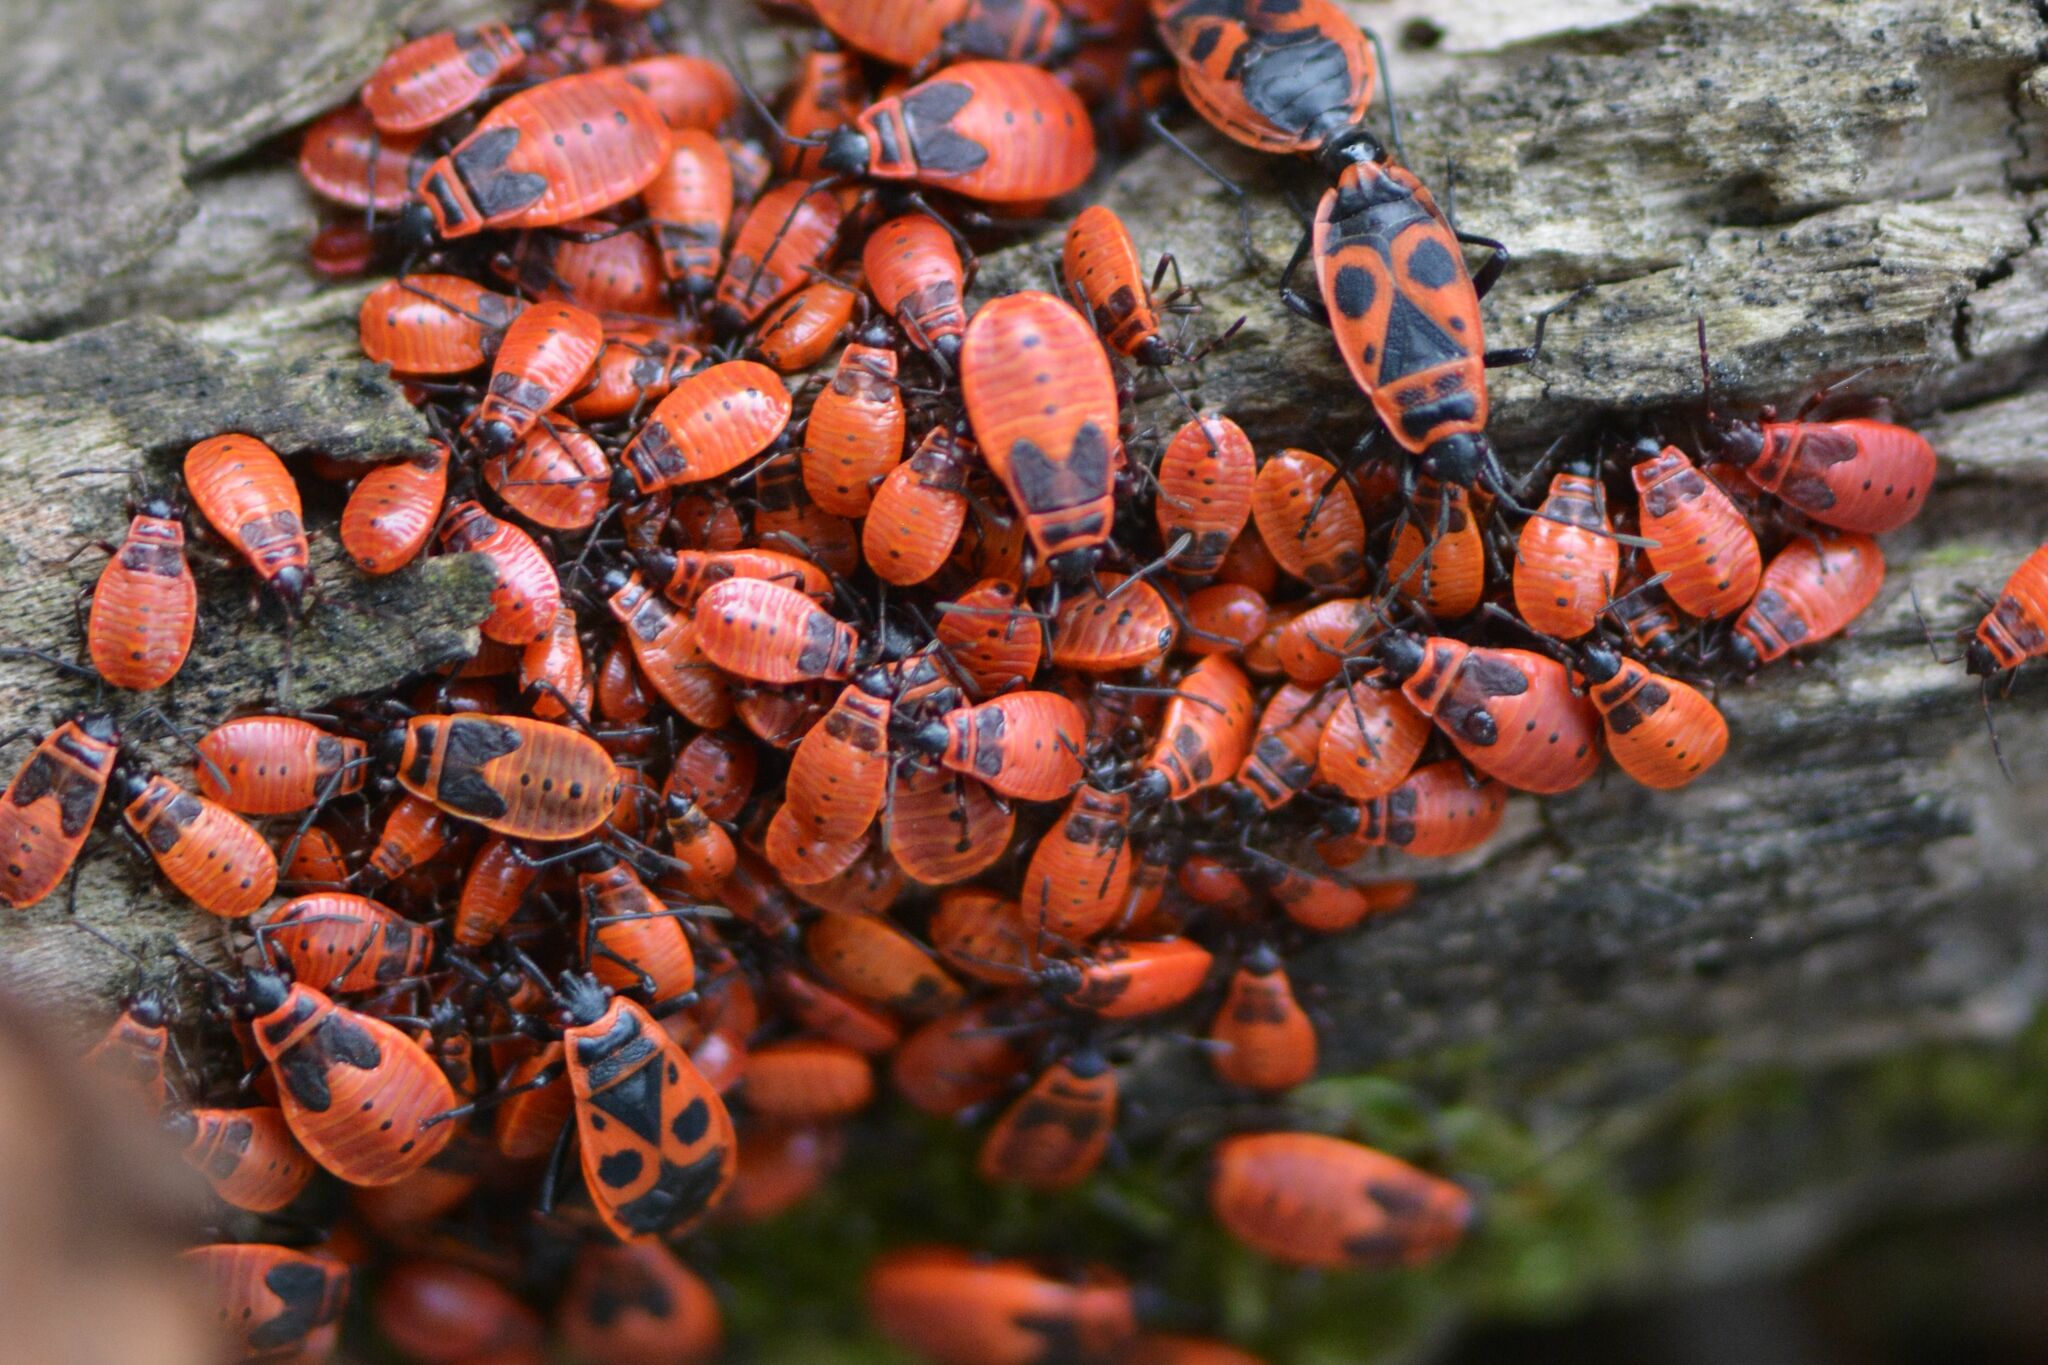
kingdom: Animalia
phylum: Arthropoda
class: Insecta
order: Hemiptera
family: Pyrrhocoridae
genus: Pyrrhocoris
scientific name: Pyrrhocoris apterus
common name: Firebug
